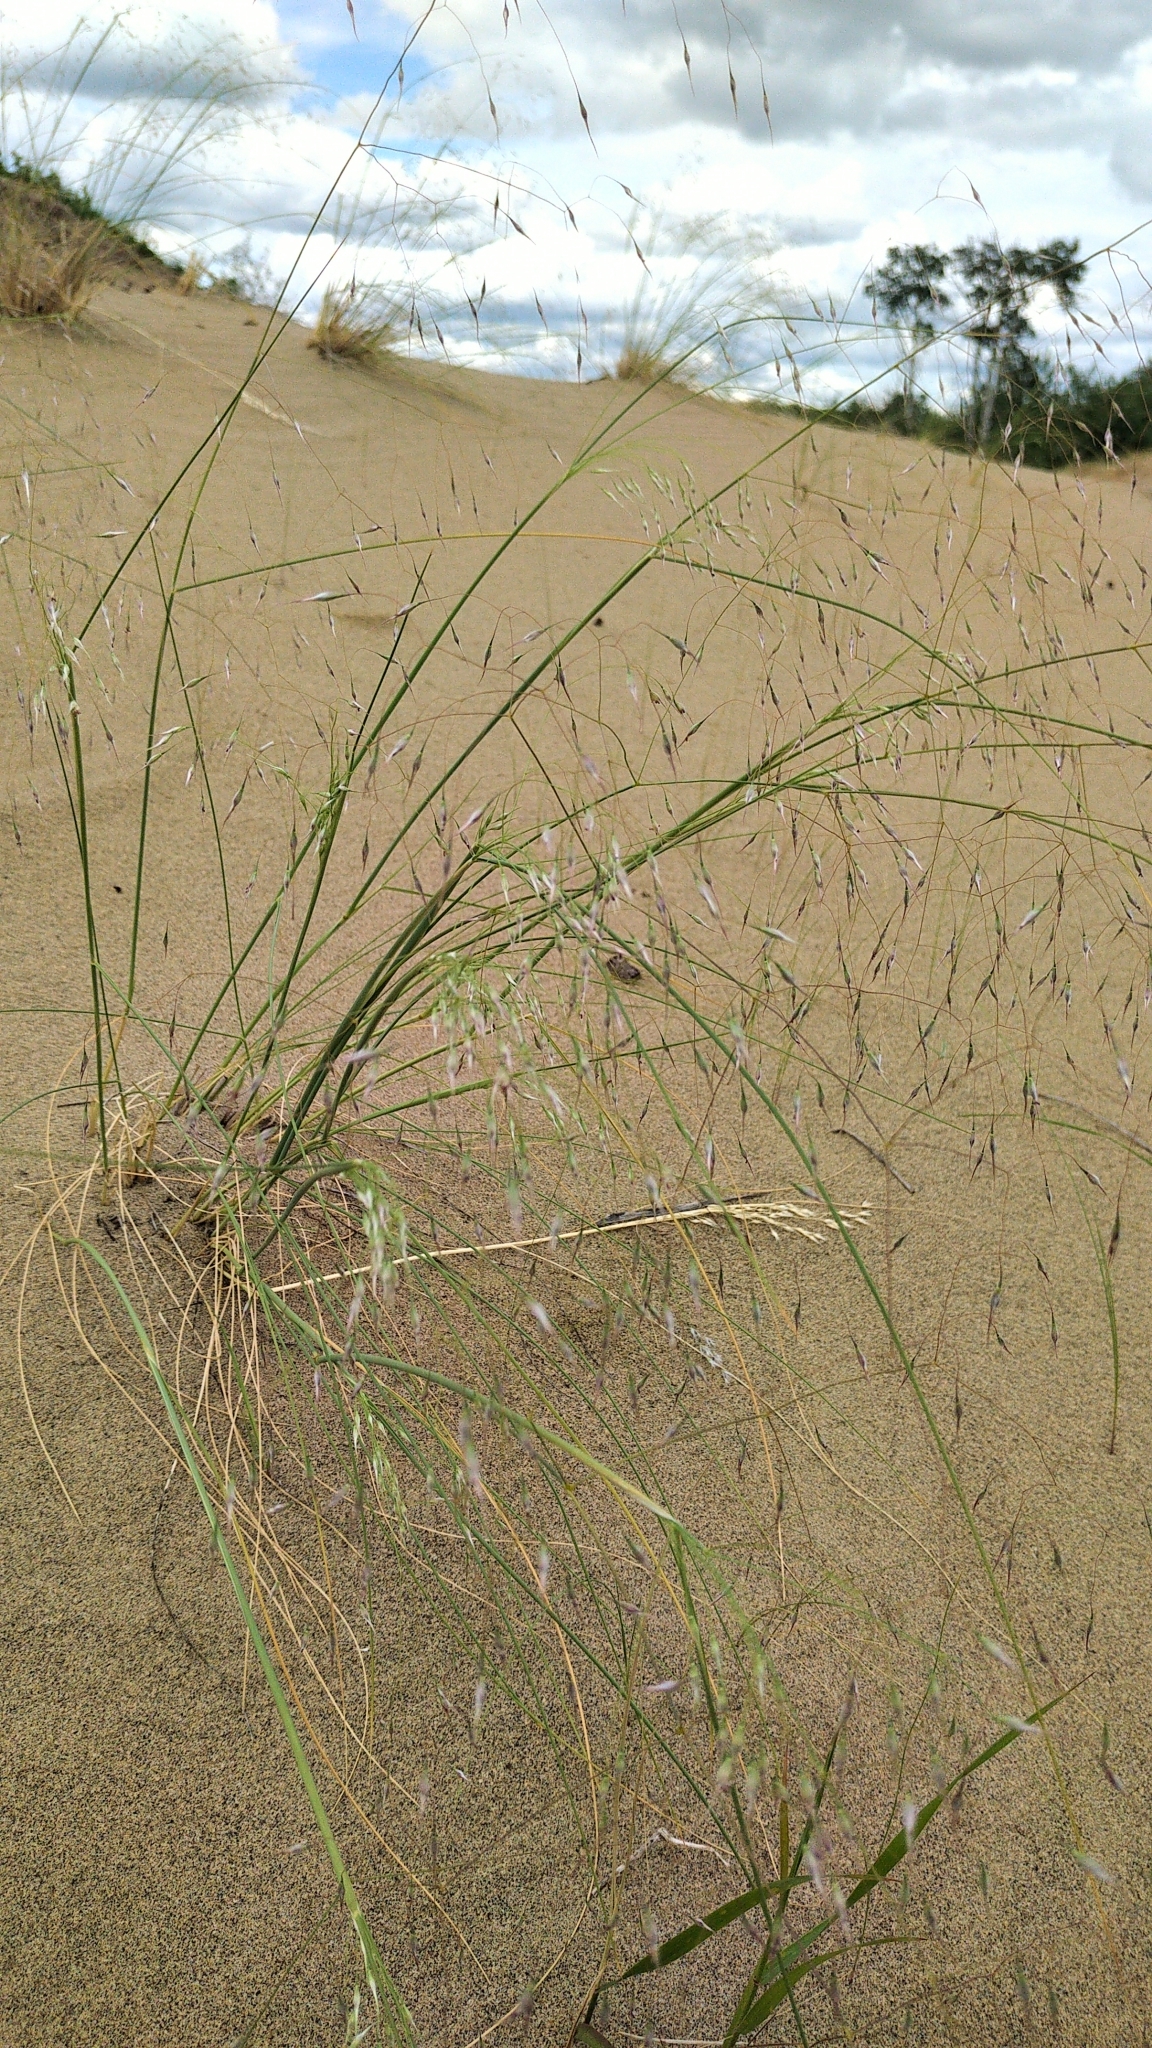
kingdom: Plantae
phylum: Tracheophyta
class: Liliopsida
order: Poales
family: Poaceae
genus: Eriocoma
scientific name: Eriocoma hymenoides
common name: Indian mountain ricegrass
